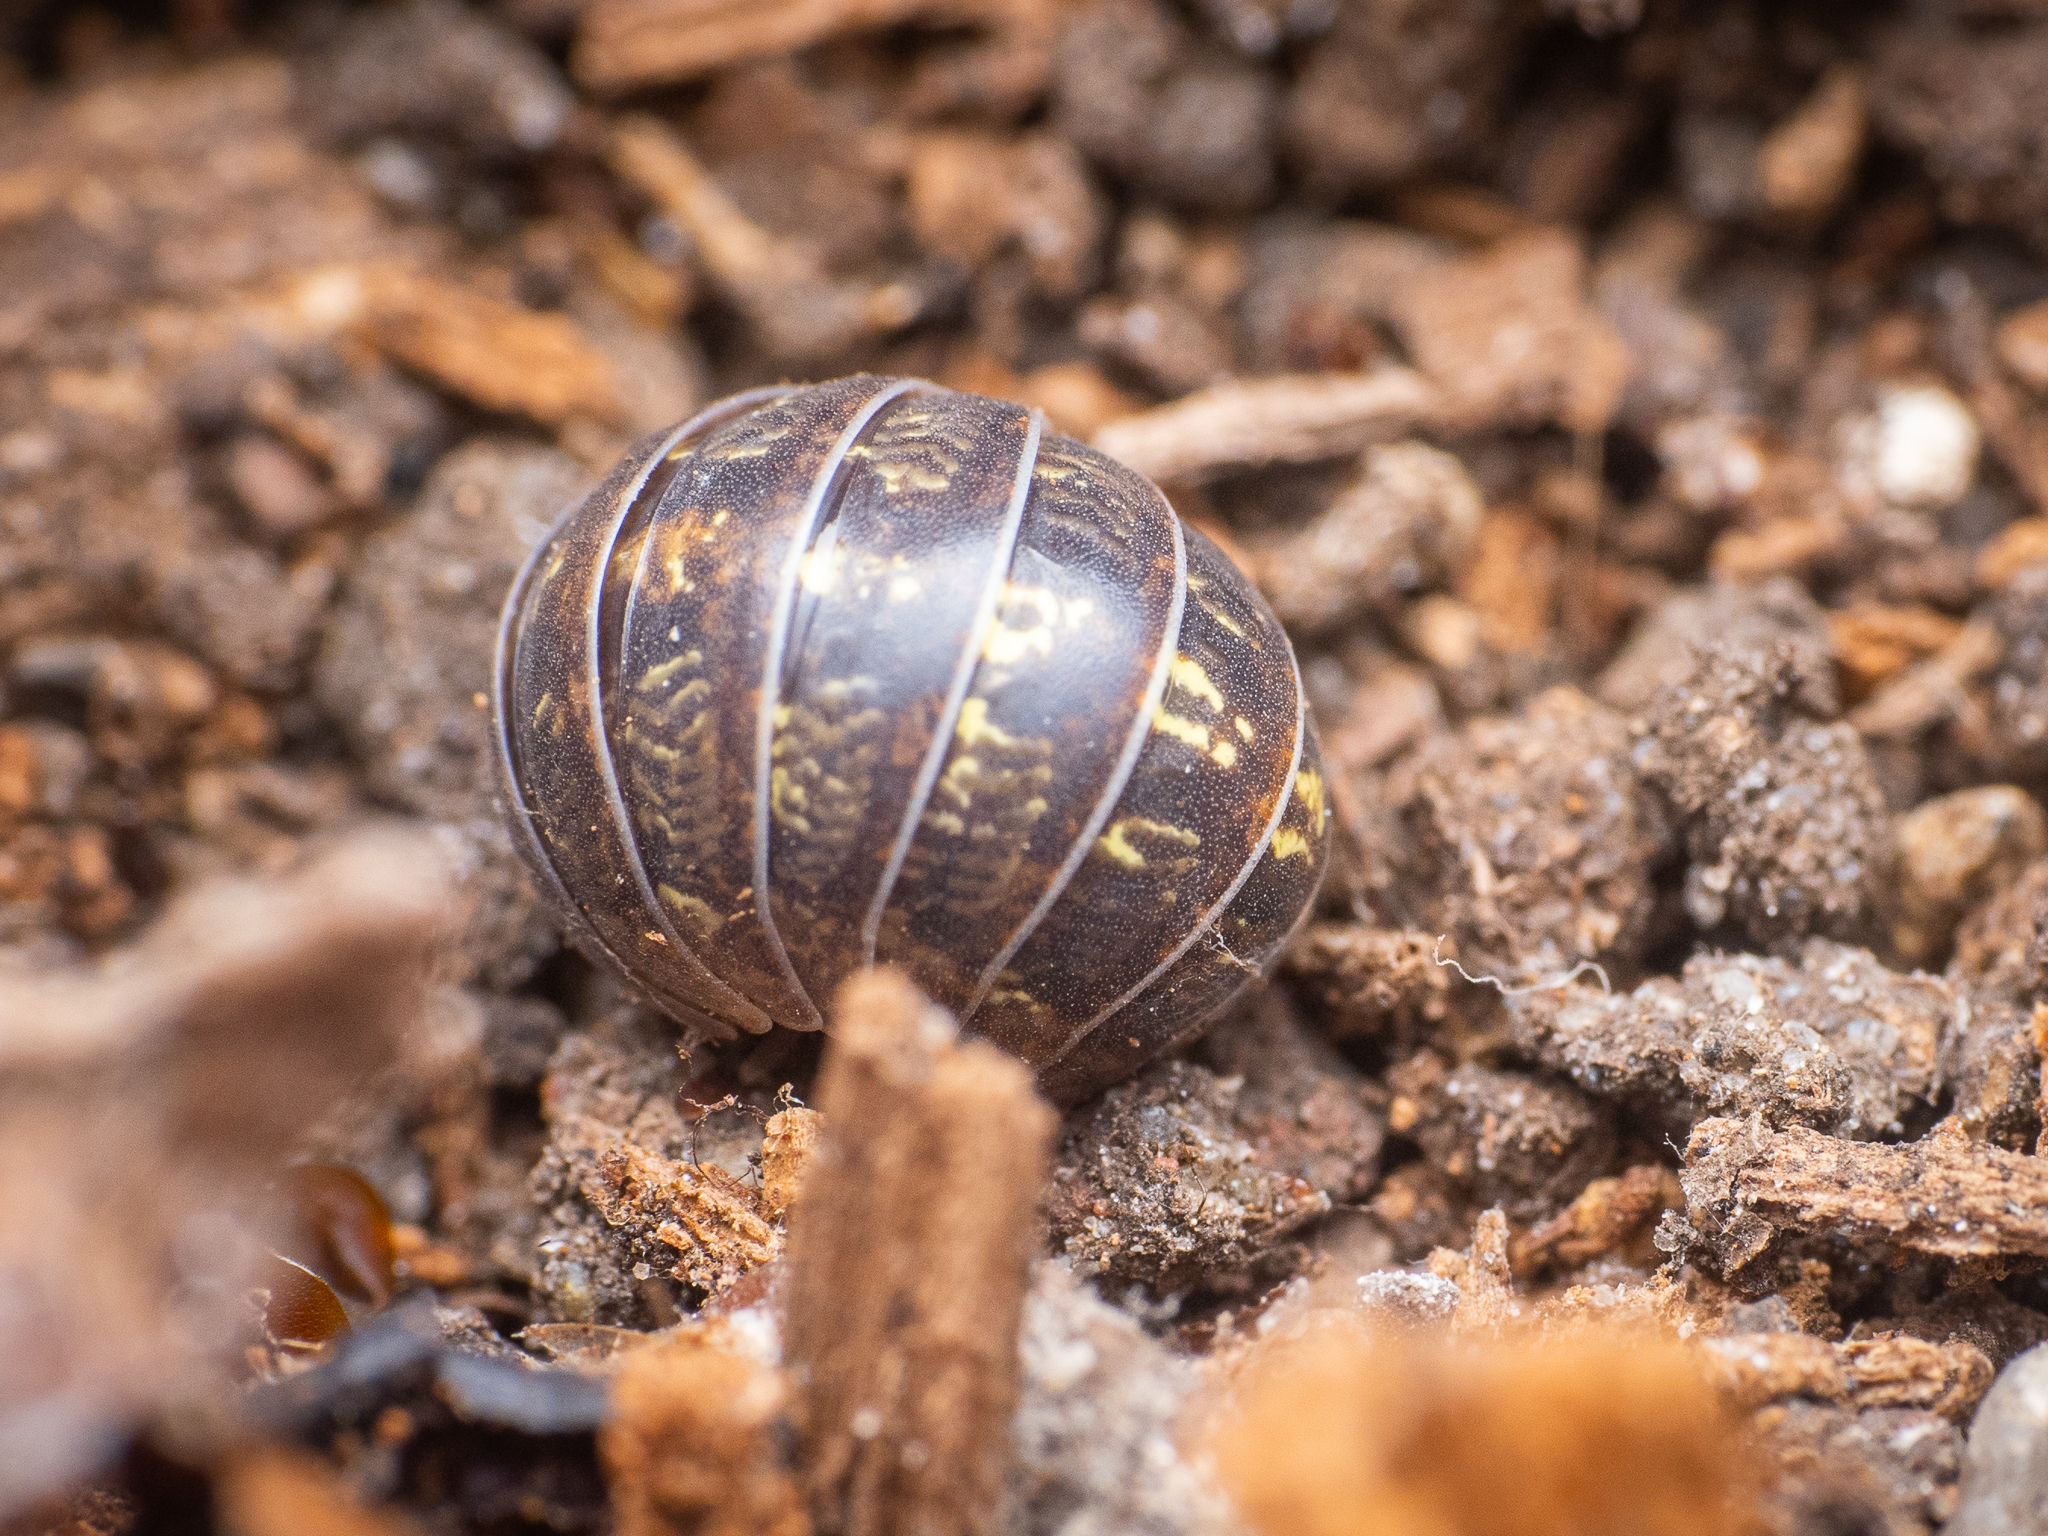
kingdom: Animalia
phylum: Arthropoda
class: Malacostraca
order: Isopoda
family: Armadillidiidae
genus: Armadillidium
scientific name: Armadillidium vulgare
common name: Common pill woodlouse
